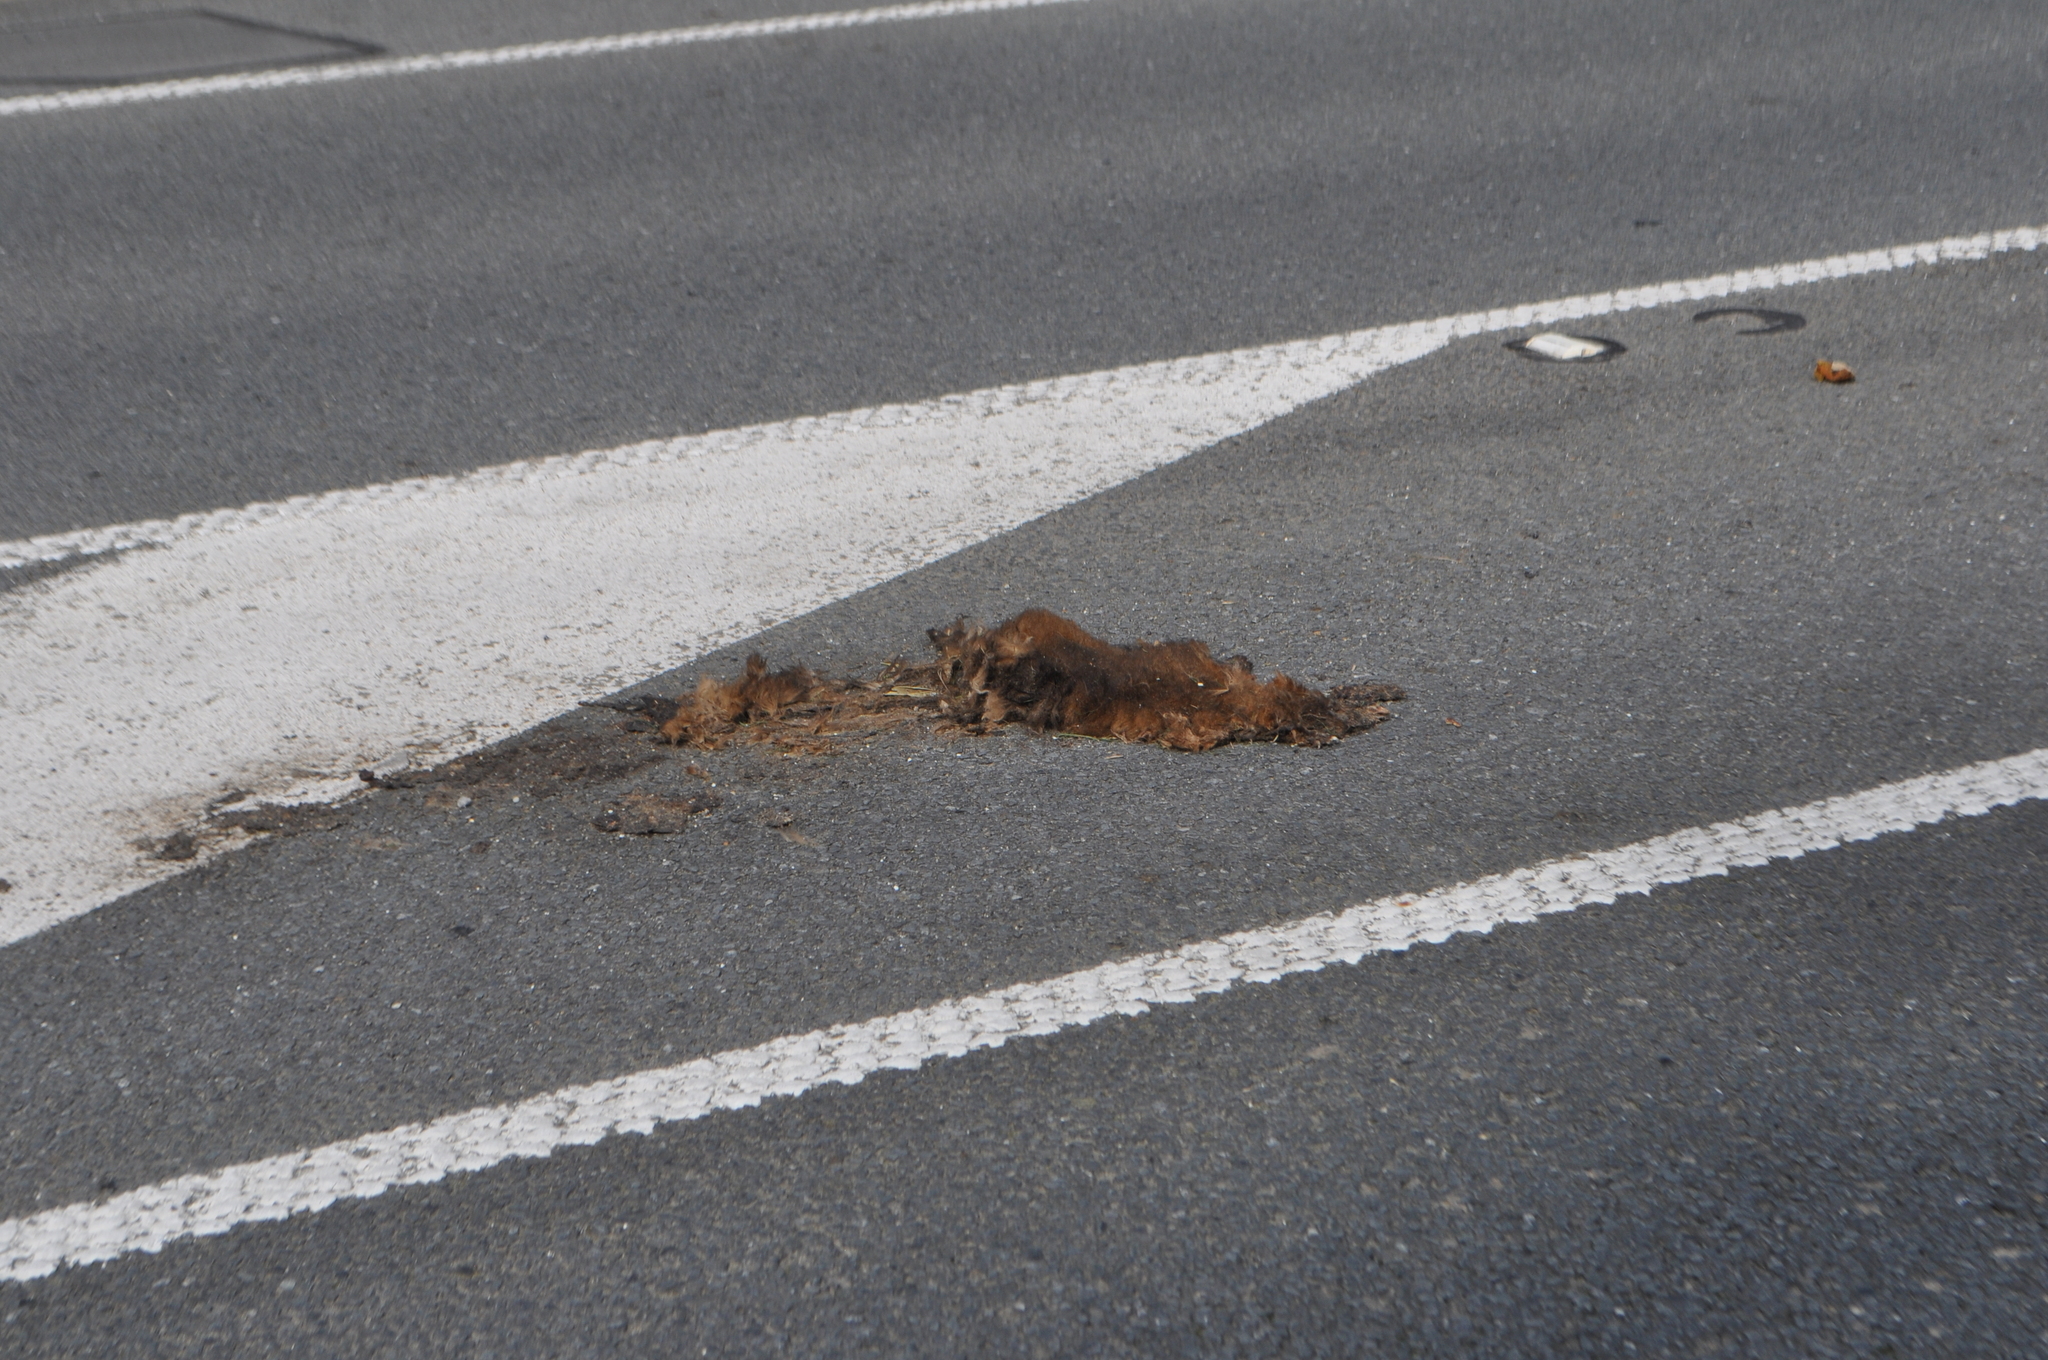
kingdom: Animalia
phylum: Chordata
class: Mammalia
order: Diprotodontia
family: Phalangeridae
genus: Trichosurus
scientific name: Trichosurus vulpecula
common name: Common brushtail
